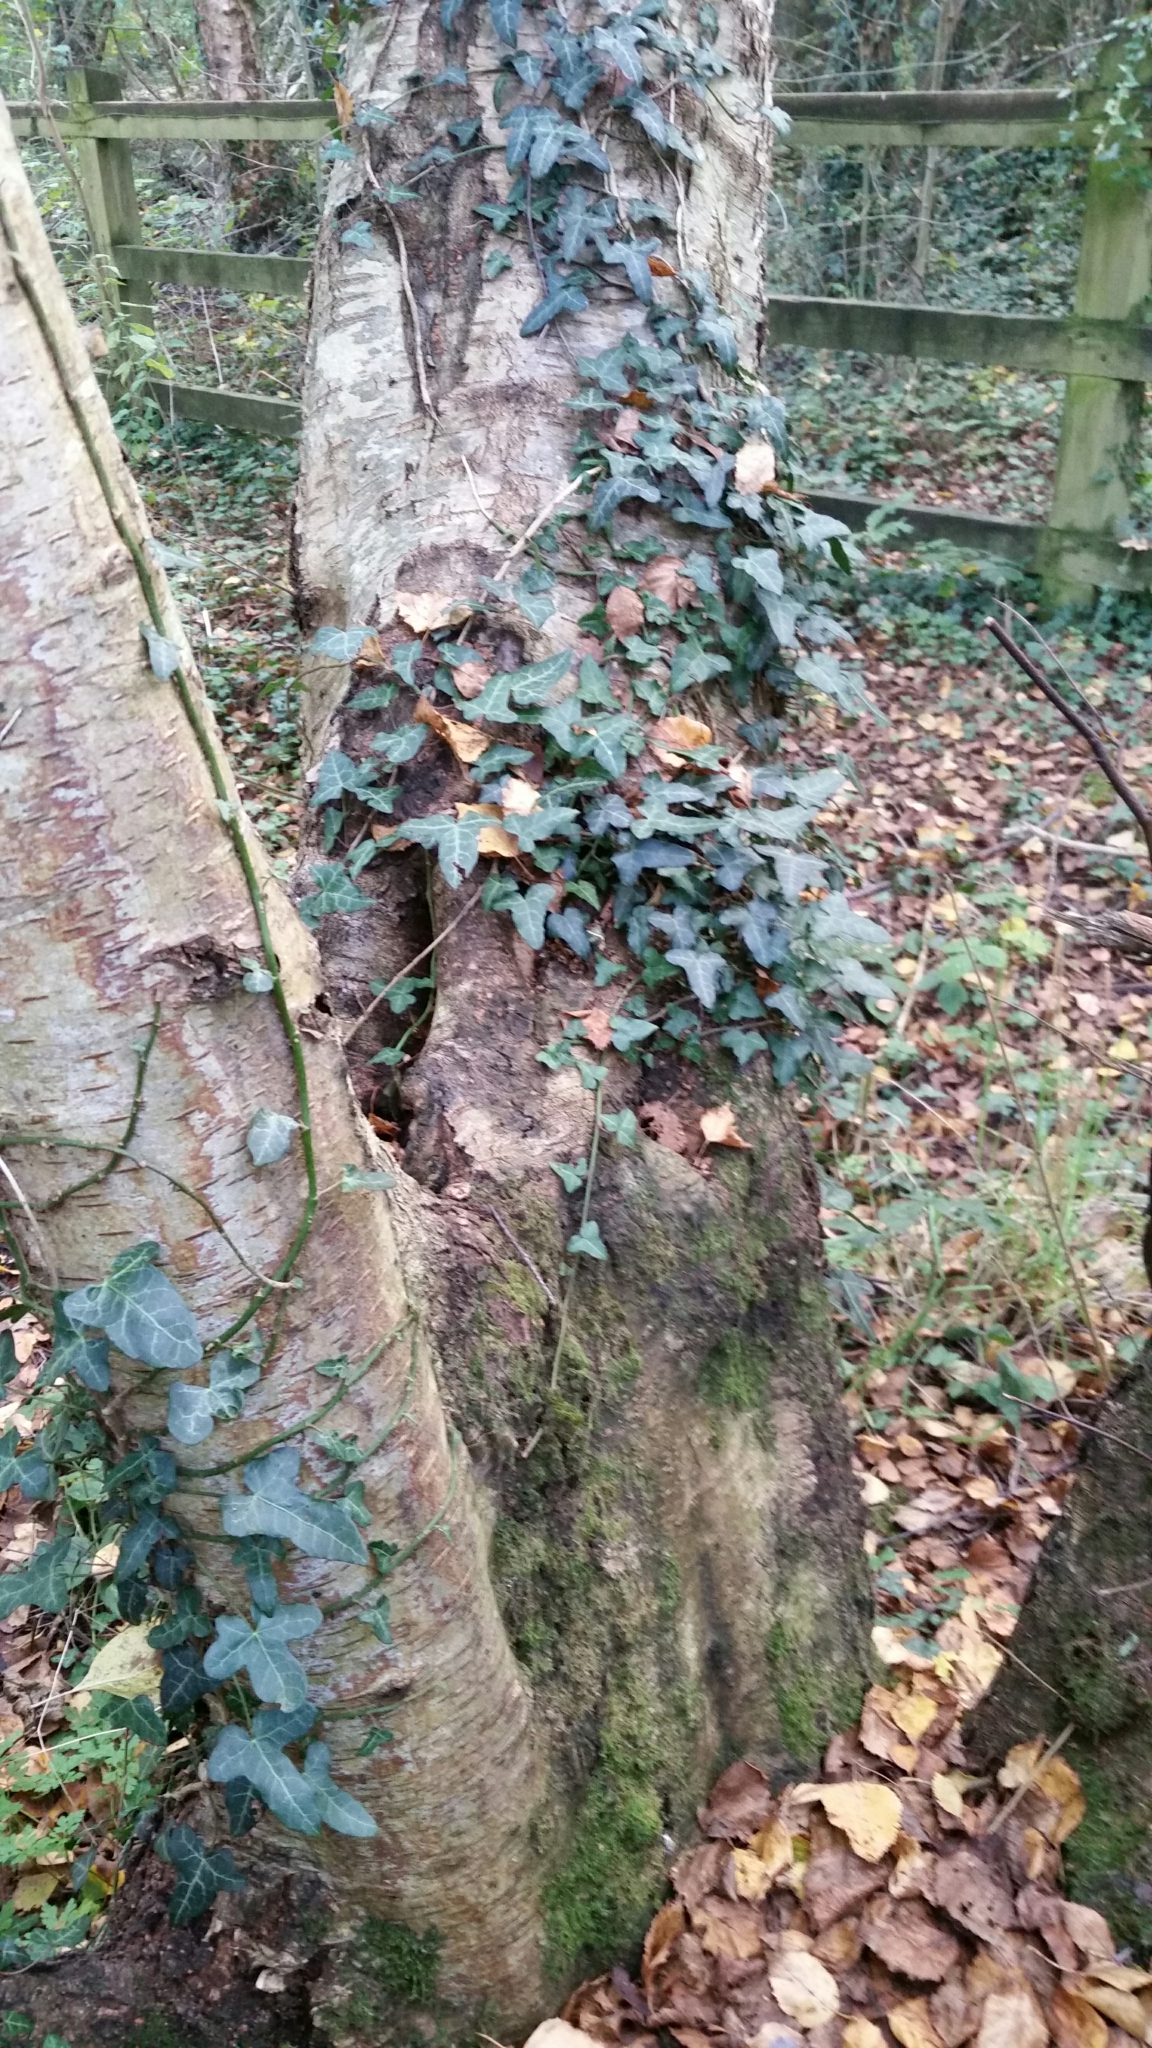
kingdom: Plantae
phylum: Tracheophyta
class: Magnoliopsida
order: Apiales
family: Araliaceae
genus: Hedera
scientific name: Hedera helix
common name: Ivy
